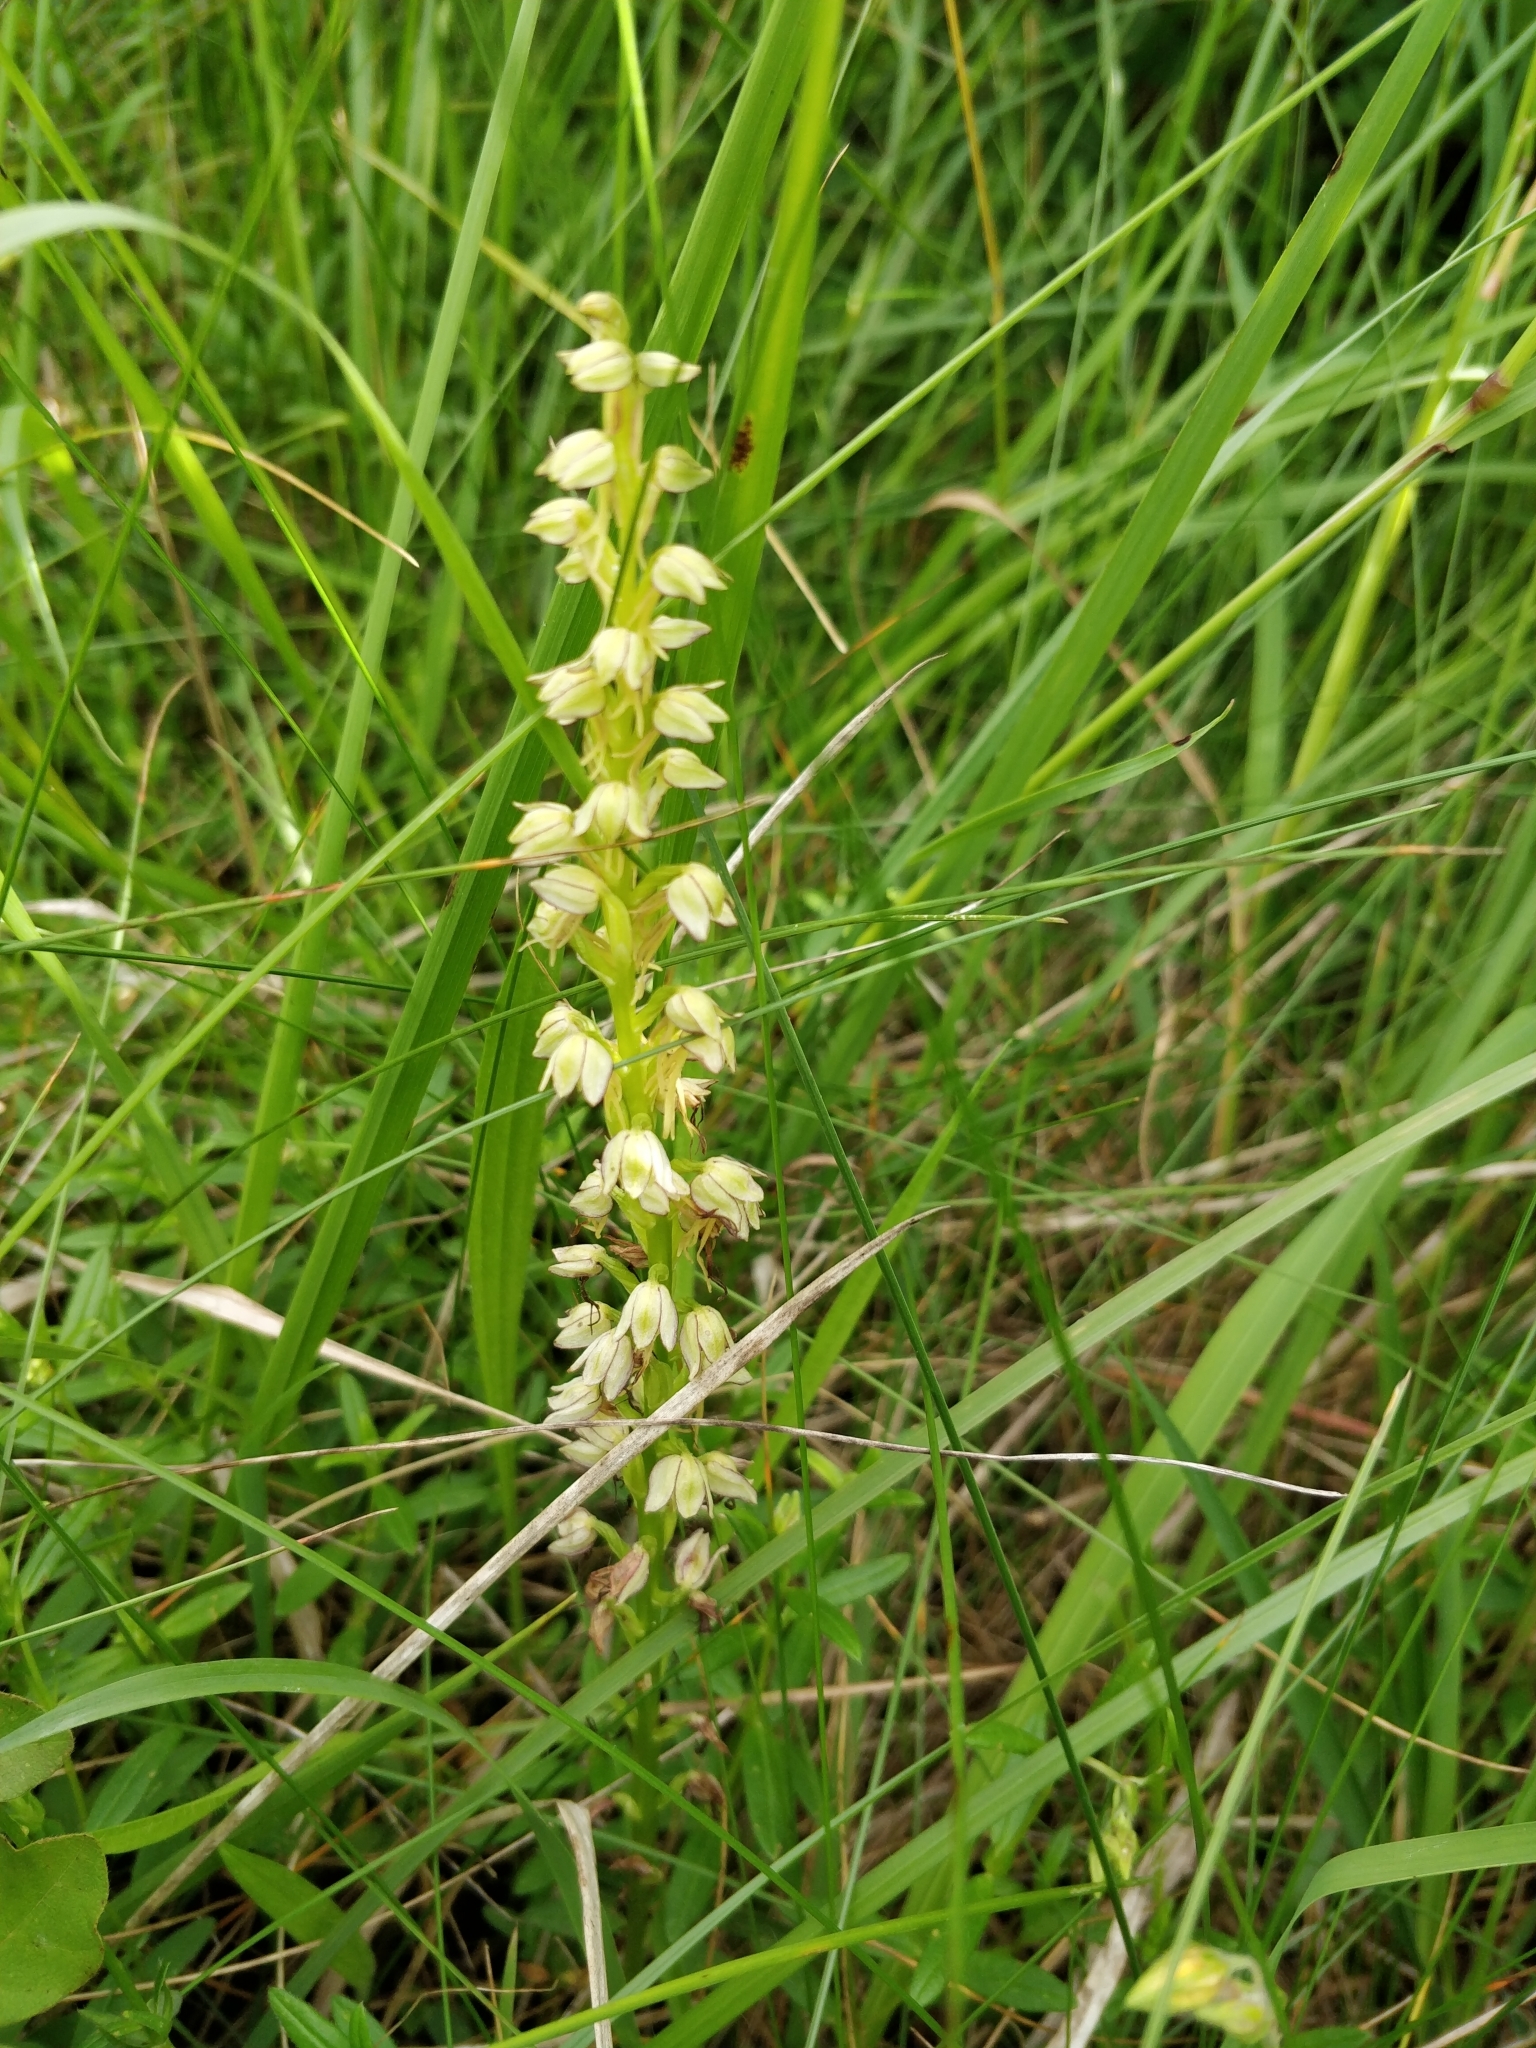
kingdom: Plantae
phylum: Tracheophyta
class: Liliopsida
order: Asparagales
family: Orchidaceae
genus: Orchis
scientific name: Orchis anthropophora
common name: Man orchid
